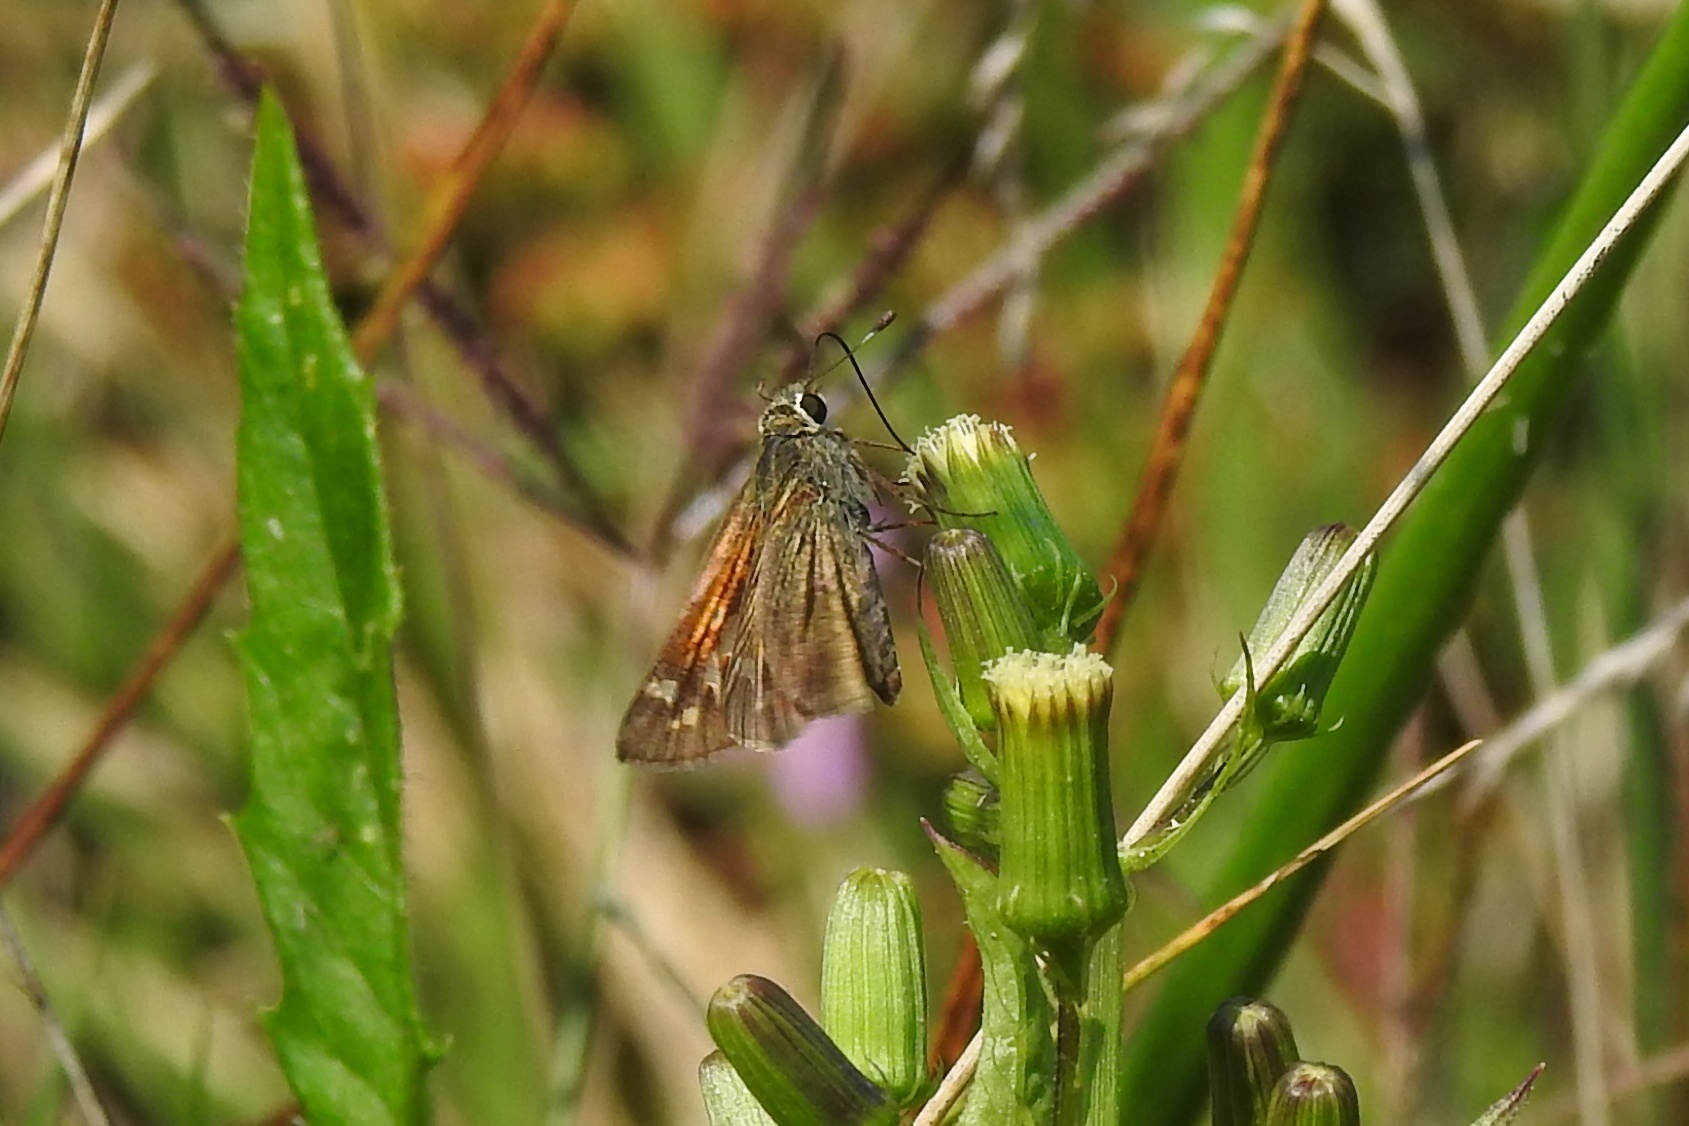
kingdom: Animalia
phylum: Arthropoda
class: Insecta
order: Lepidoptera
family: Hesperiidae
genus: Atalopedes
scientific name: Atalopedes
